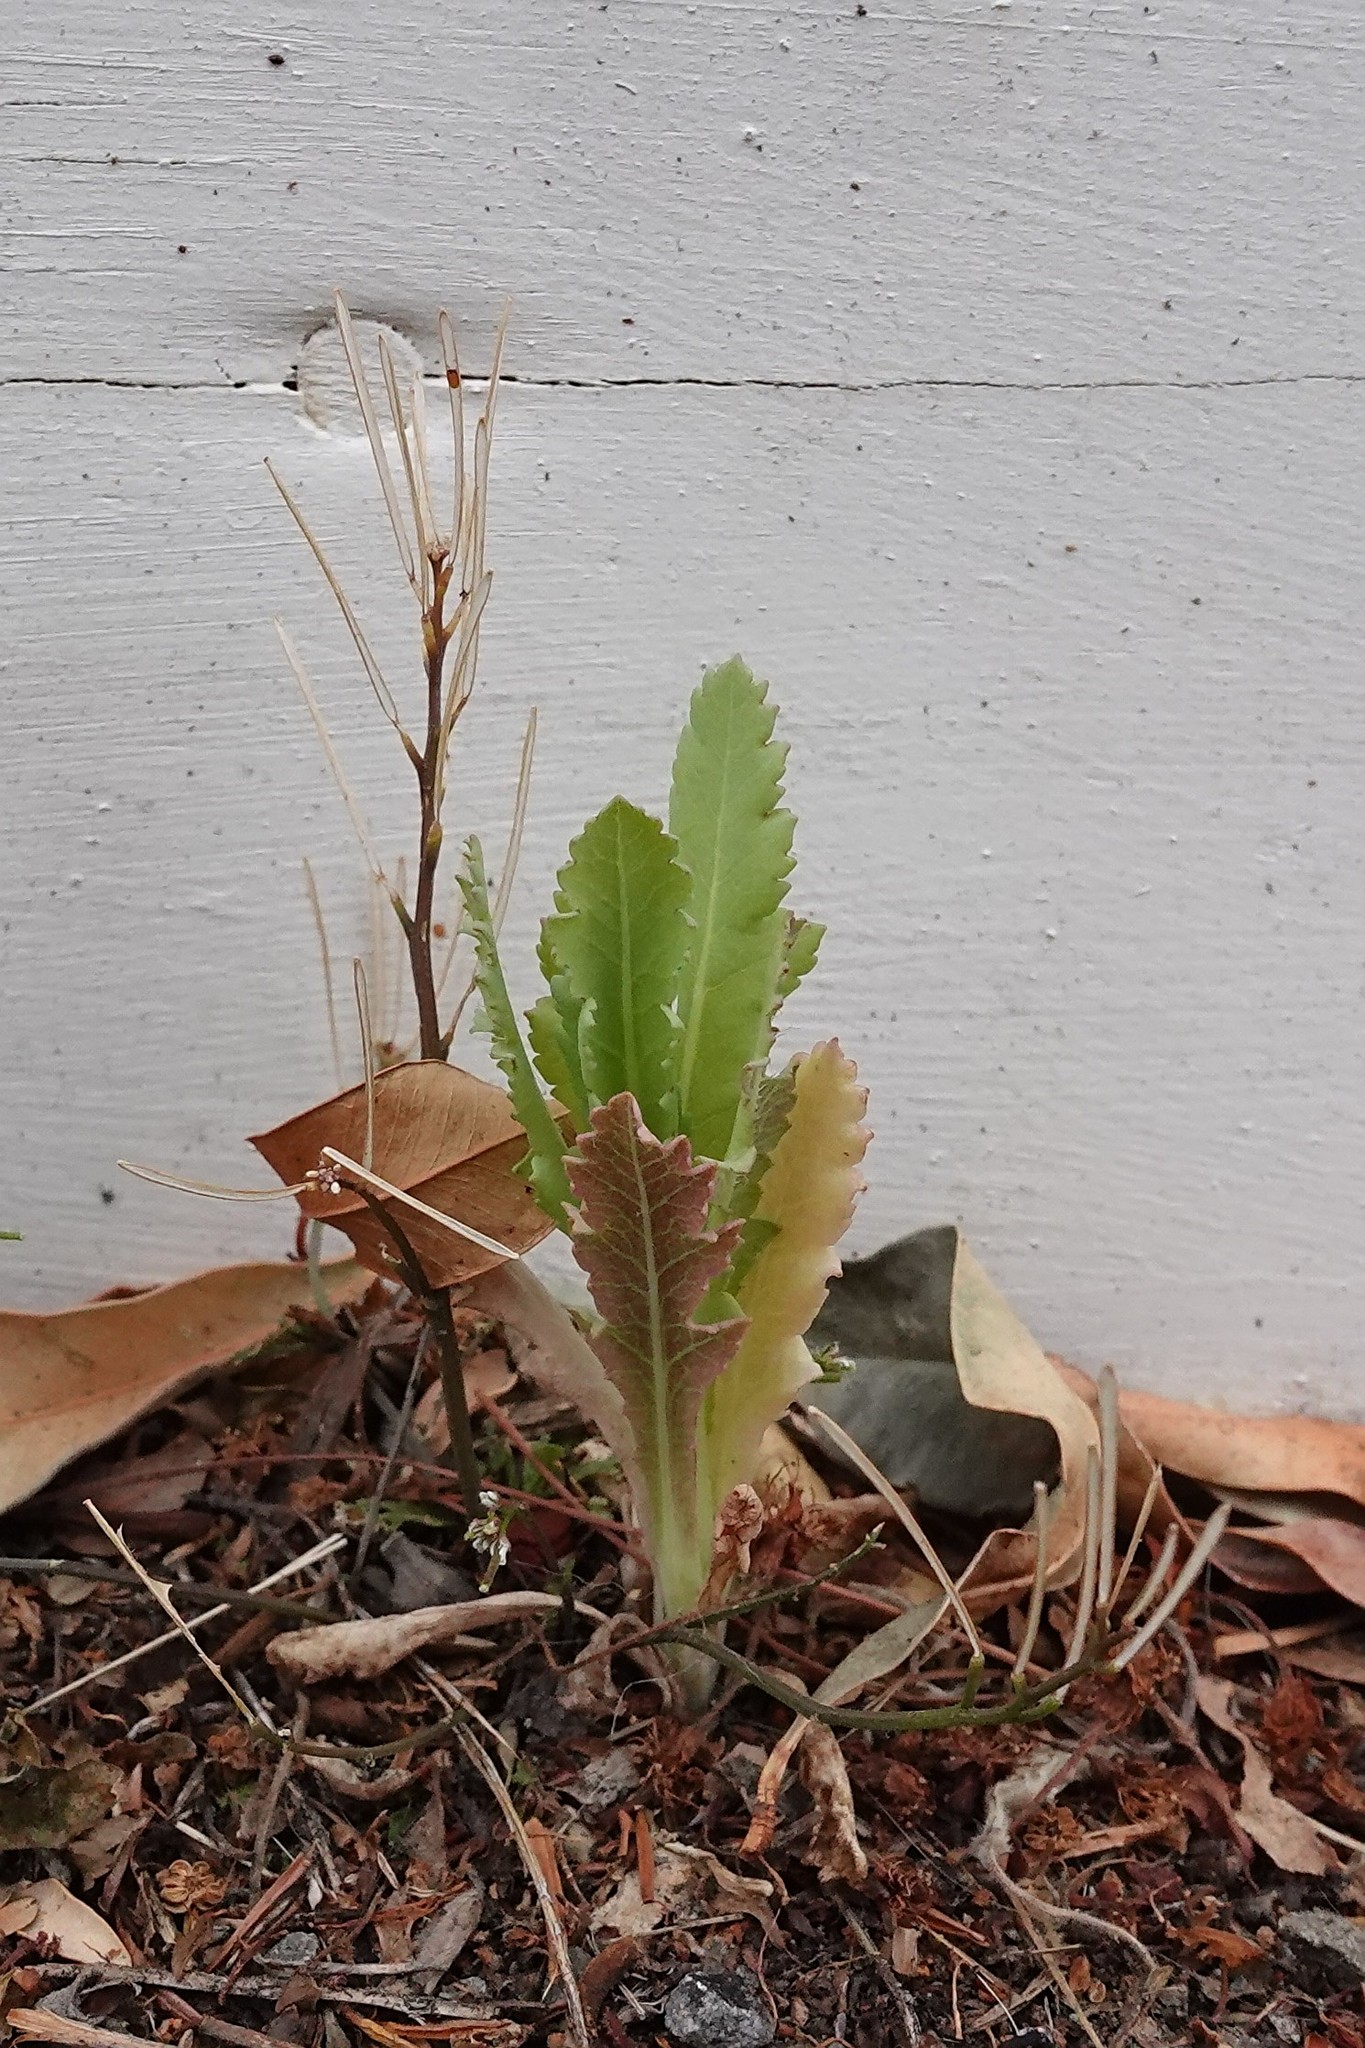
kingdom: Plantae
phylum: Tracheophyta
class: Magnoliopsida
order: Ranunculales
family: Papaveraceae
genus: Papaver
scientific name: Papaver somniferum
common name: Opium poppy
